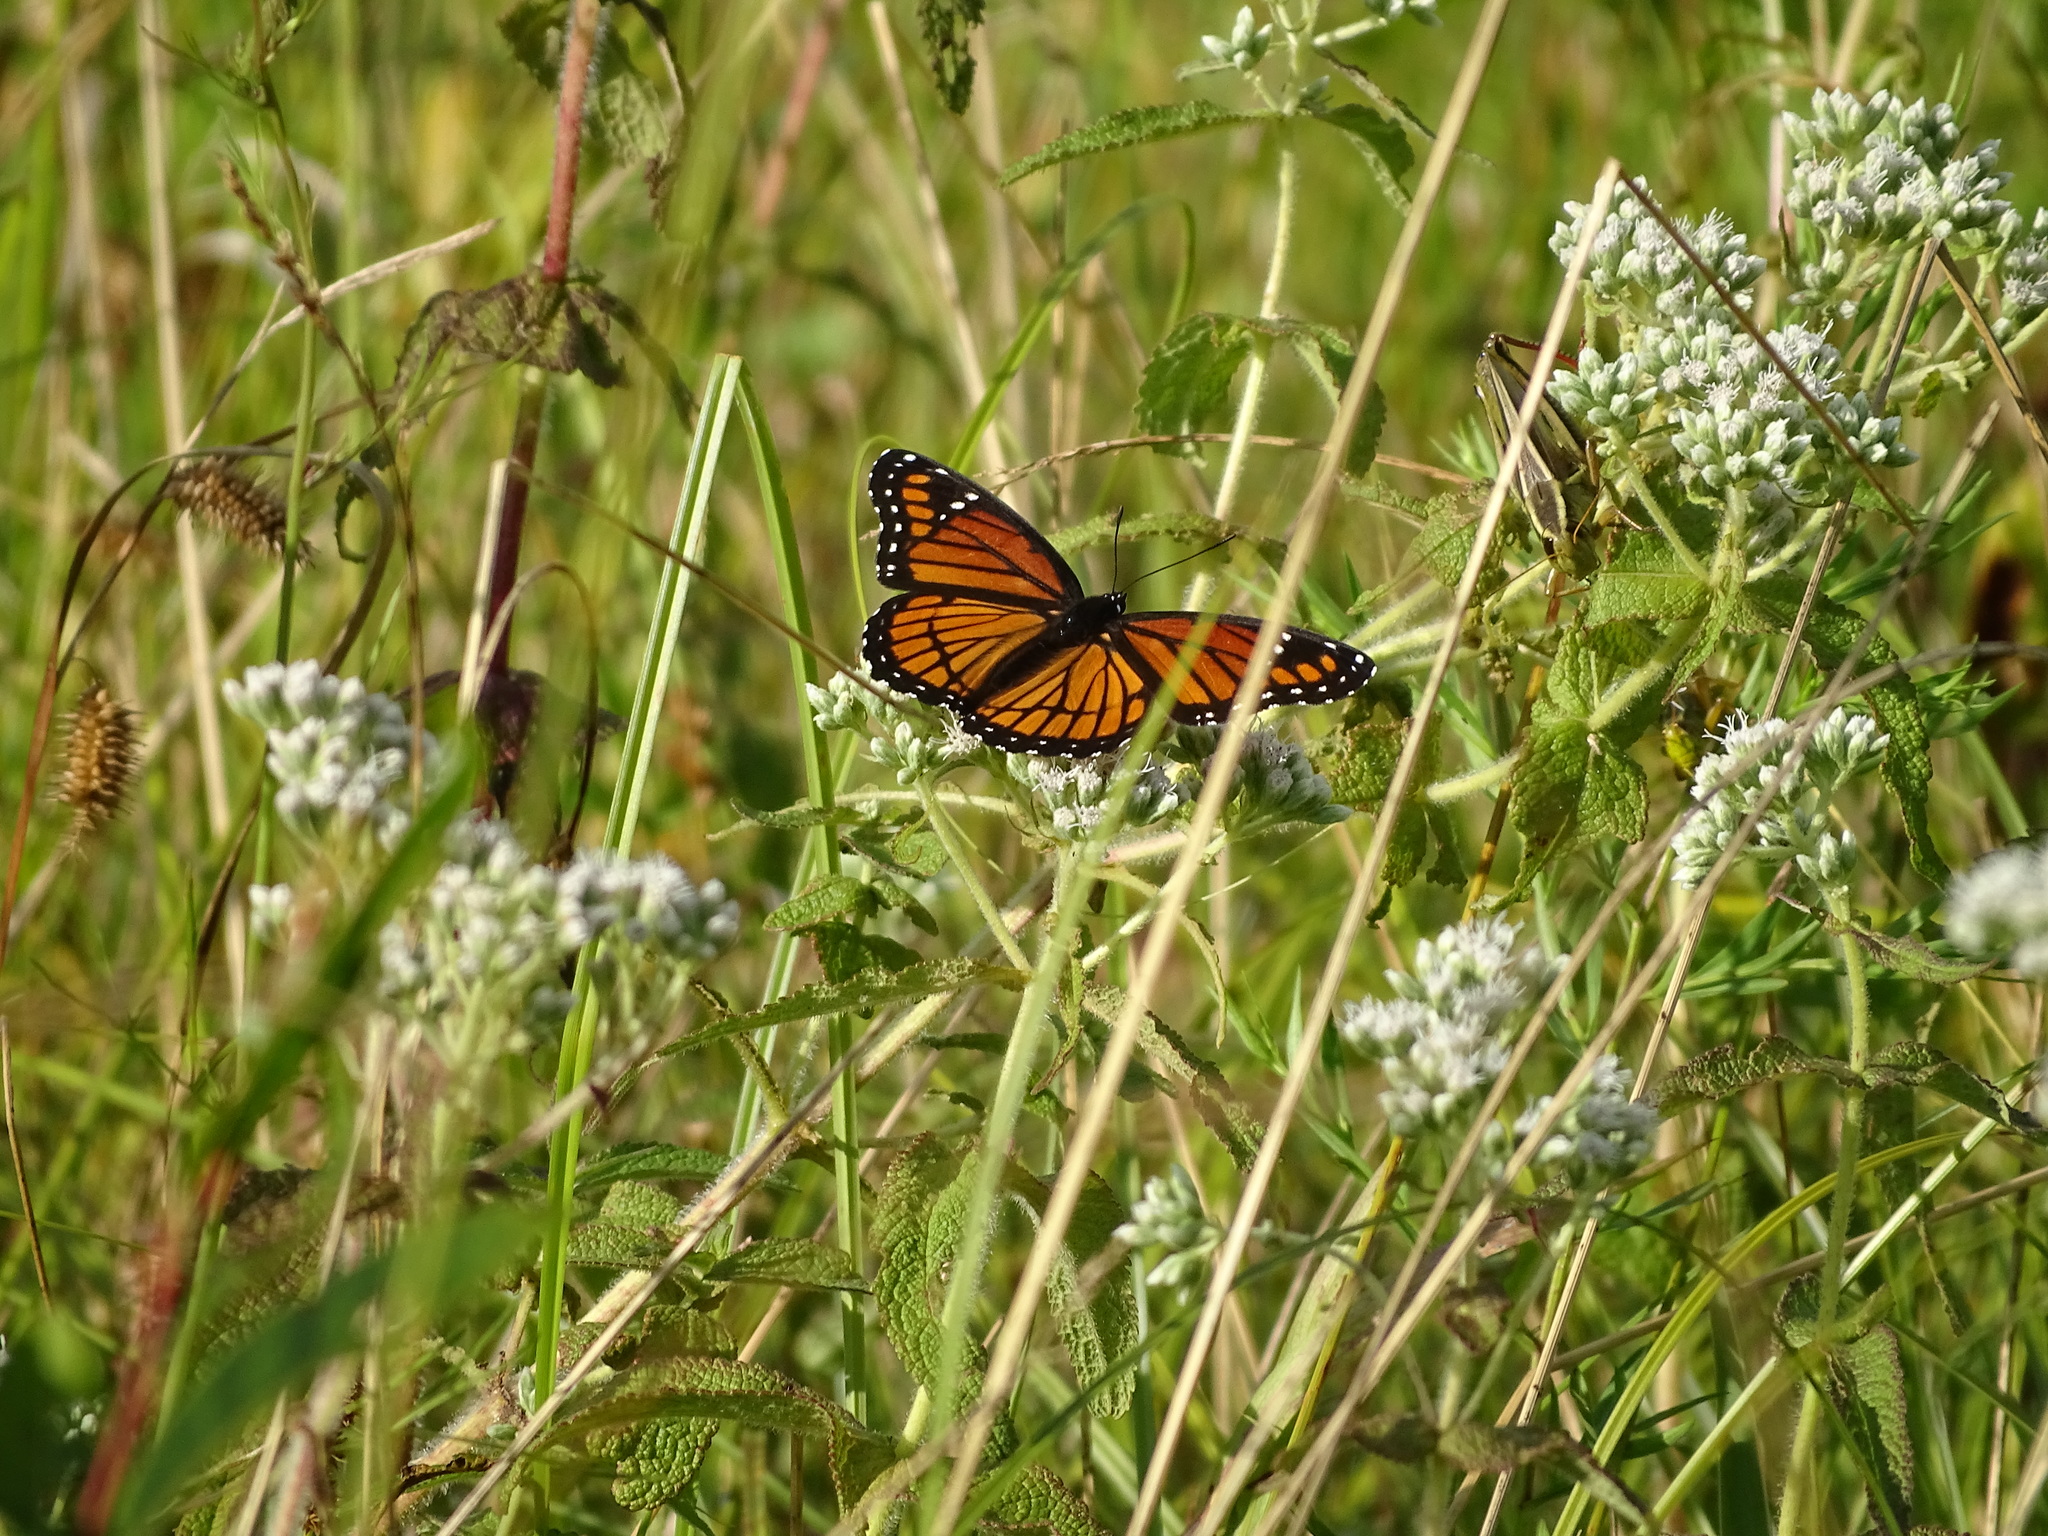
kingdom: Animalia
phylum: Arthropoda
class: Insecta
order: Lepidoptera
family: Nymphalidae
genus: Limenitis
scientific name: Limenitis archippus
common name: Viceroy
